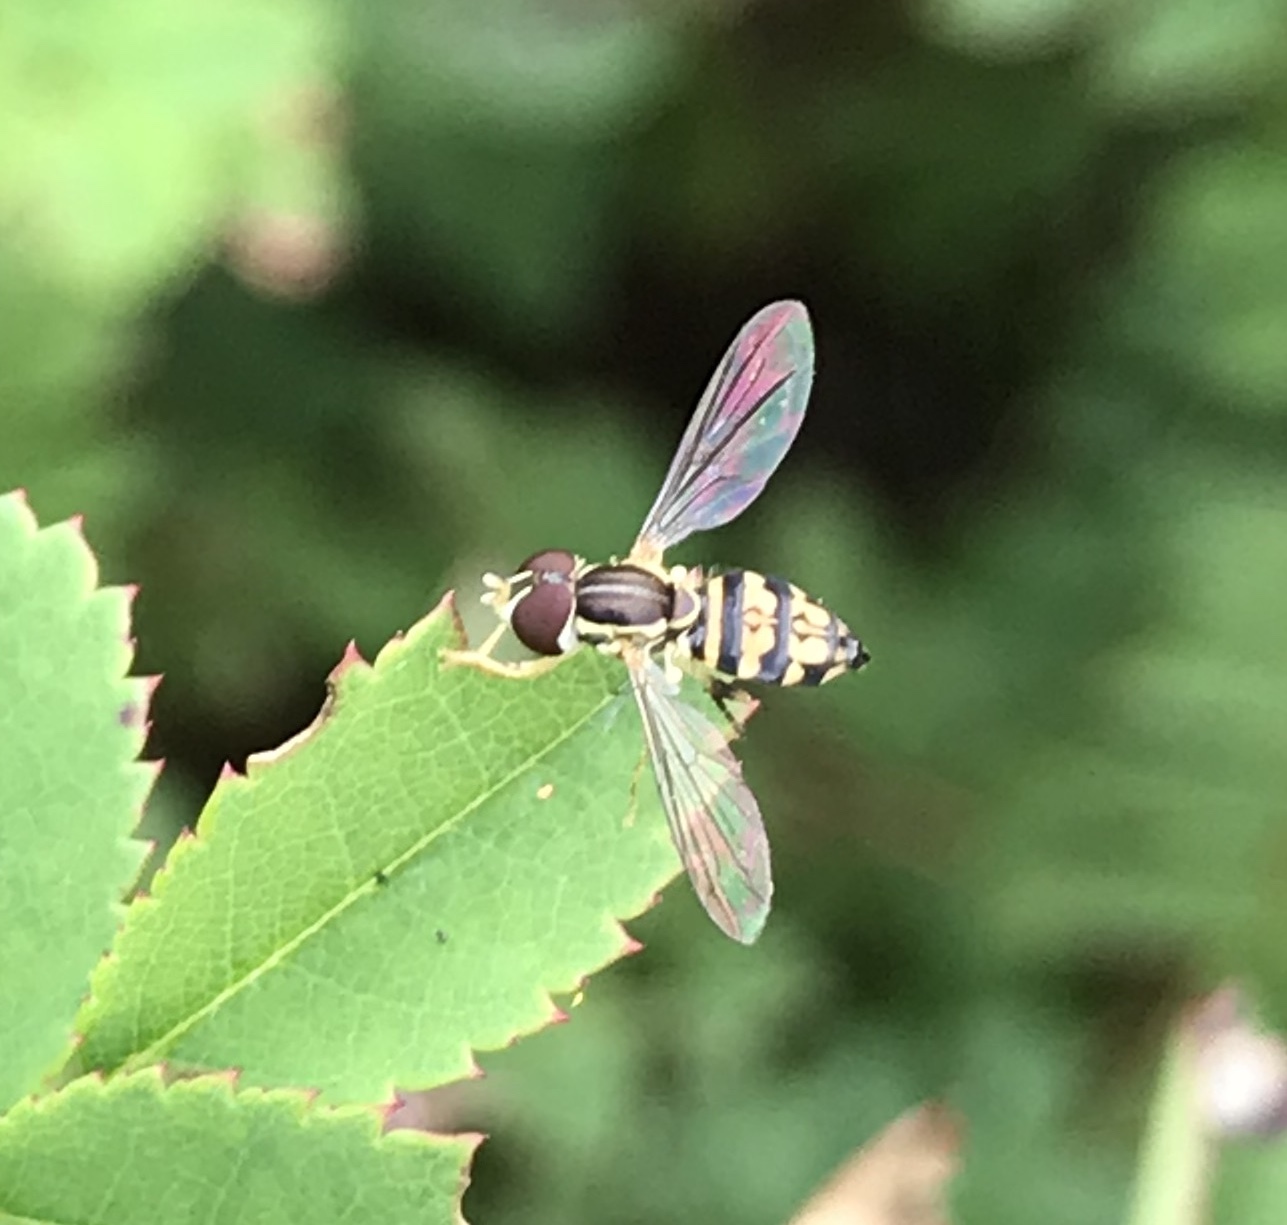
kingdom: Animalia
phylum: Arthropoda
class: Insecta
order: Diptera
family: Syrphidae
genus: Toxomerus
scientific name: Toxomerus geminatus
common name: Eastern calligrapher
